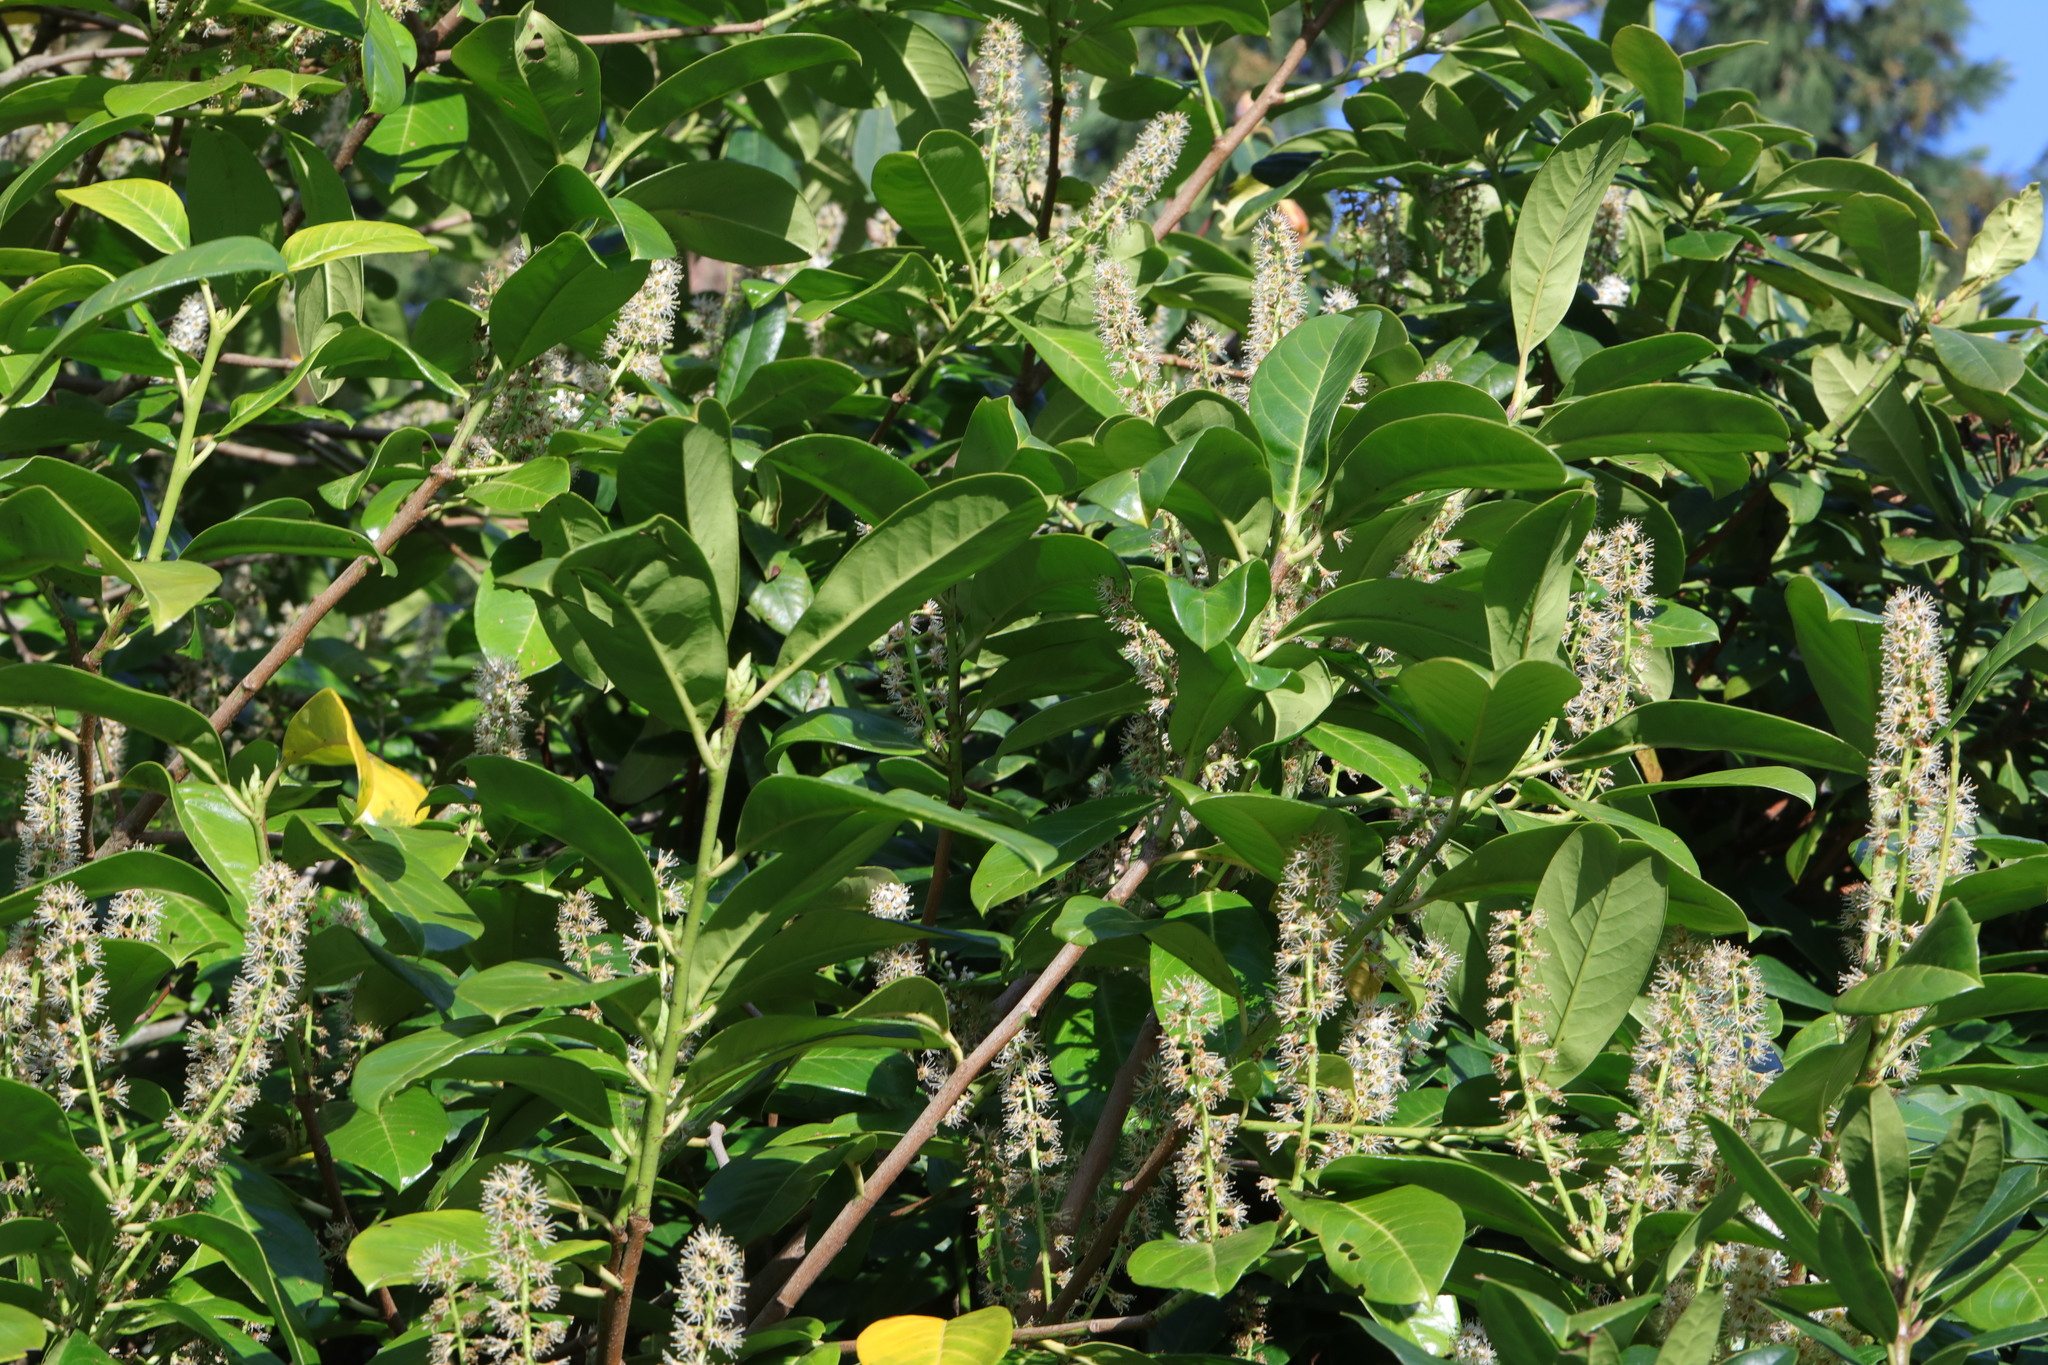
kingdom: Plantae
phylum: Tracheophyta
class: Magnoliopsida
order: Rosales
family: Rosaceae
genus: Prunus
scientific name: Prunus laurocerasus
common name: Cherry laurel
